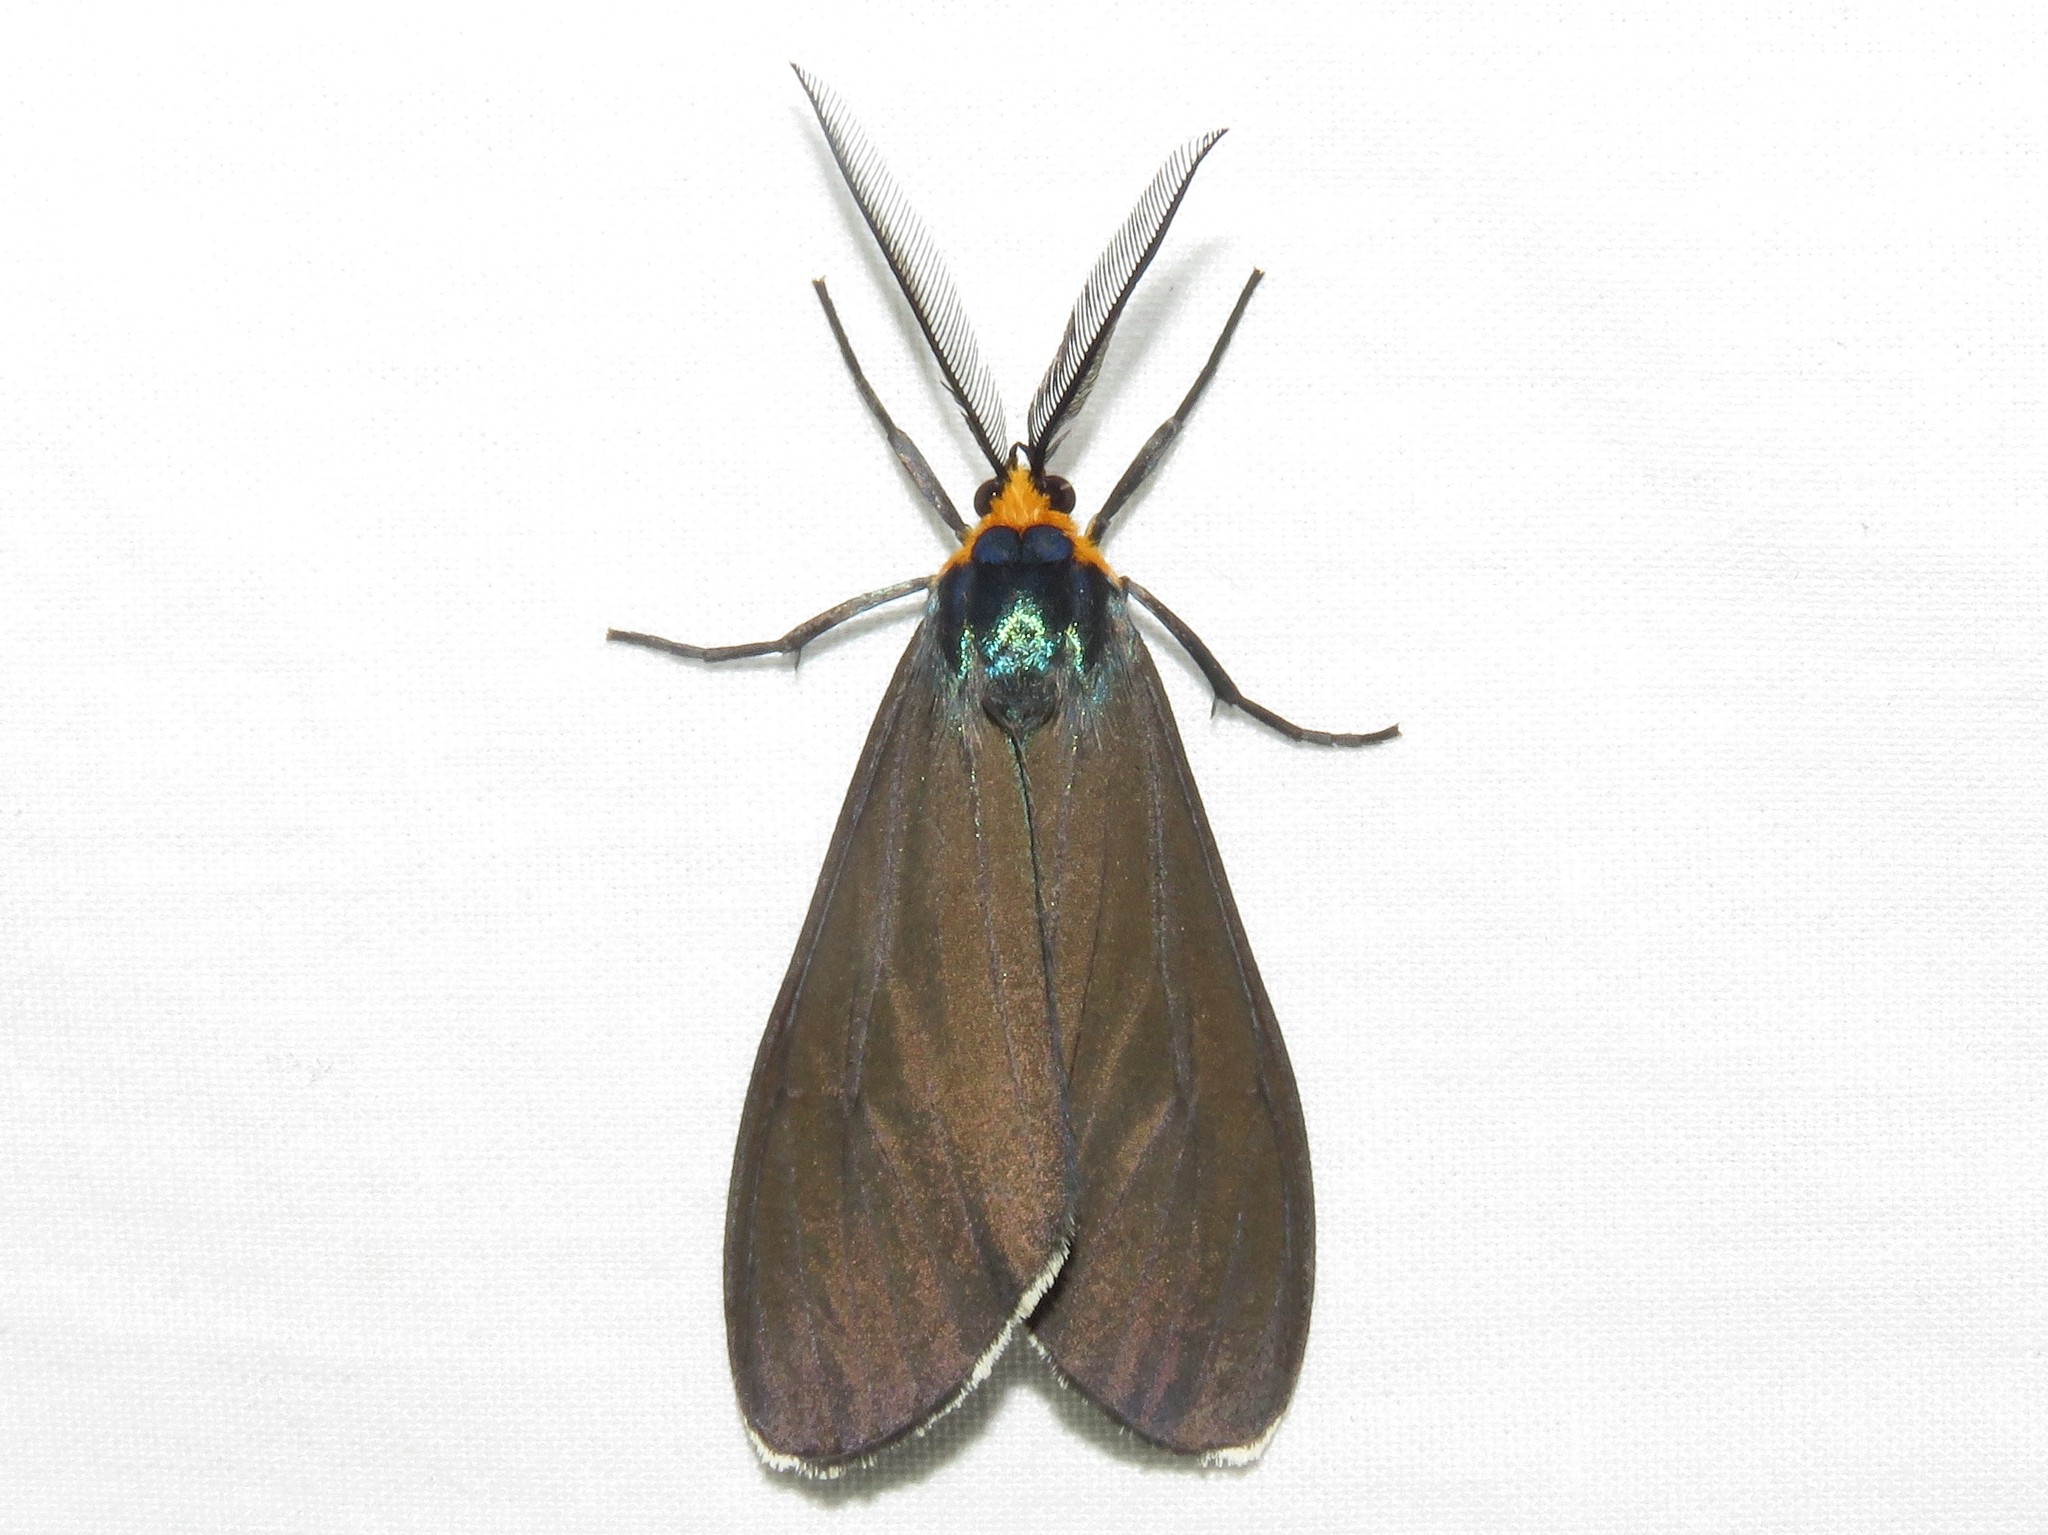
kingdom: Animalia
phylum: Arthropoda
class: Insecta
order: Lepidoptera
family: Erebidae
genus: Ctenucha
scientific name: Ctenucha virginica
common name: Virginia ctenucha moth
